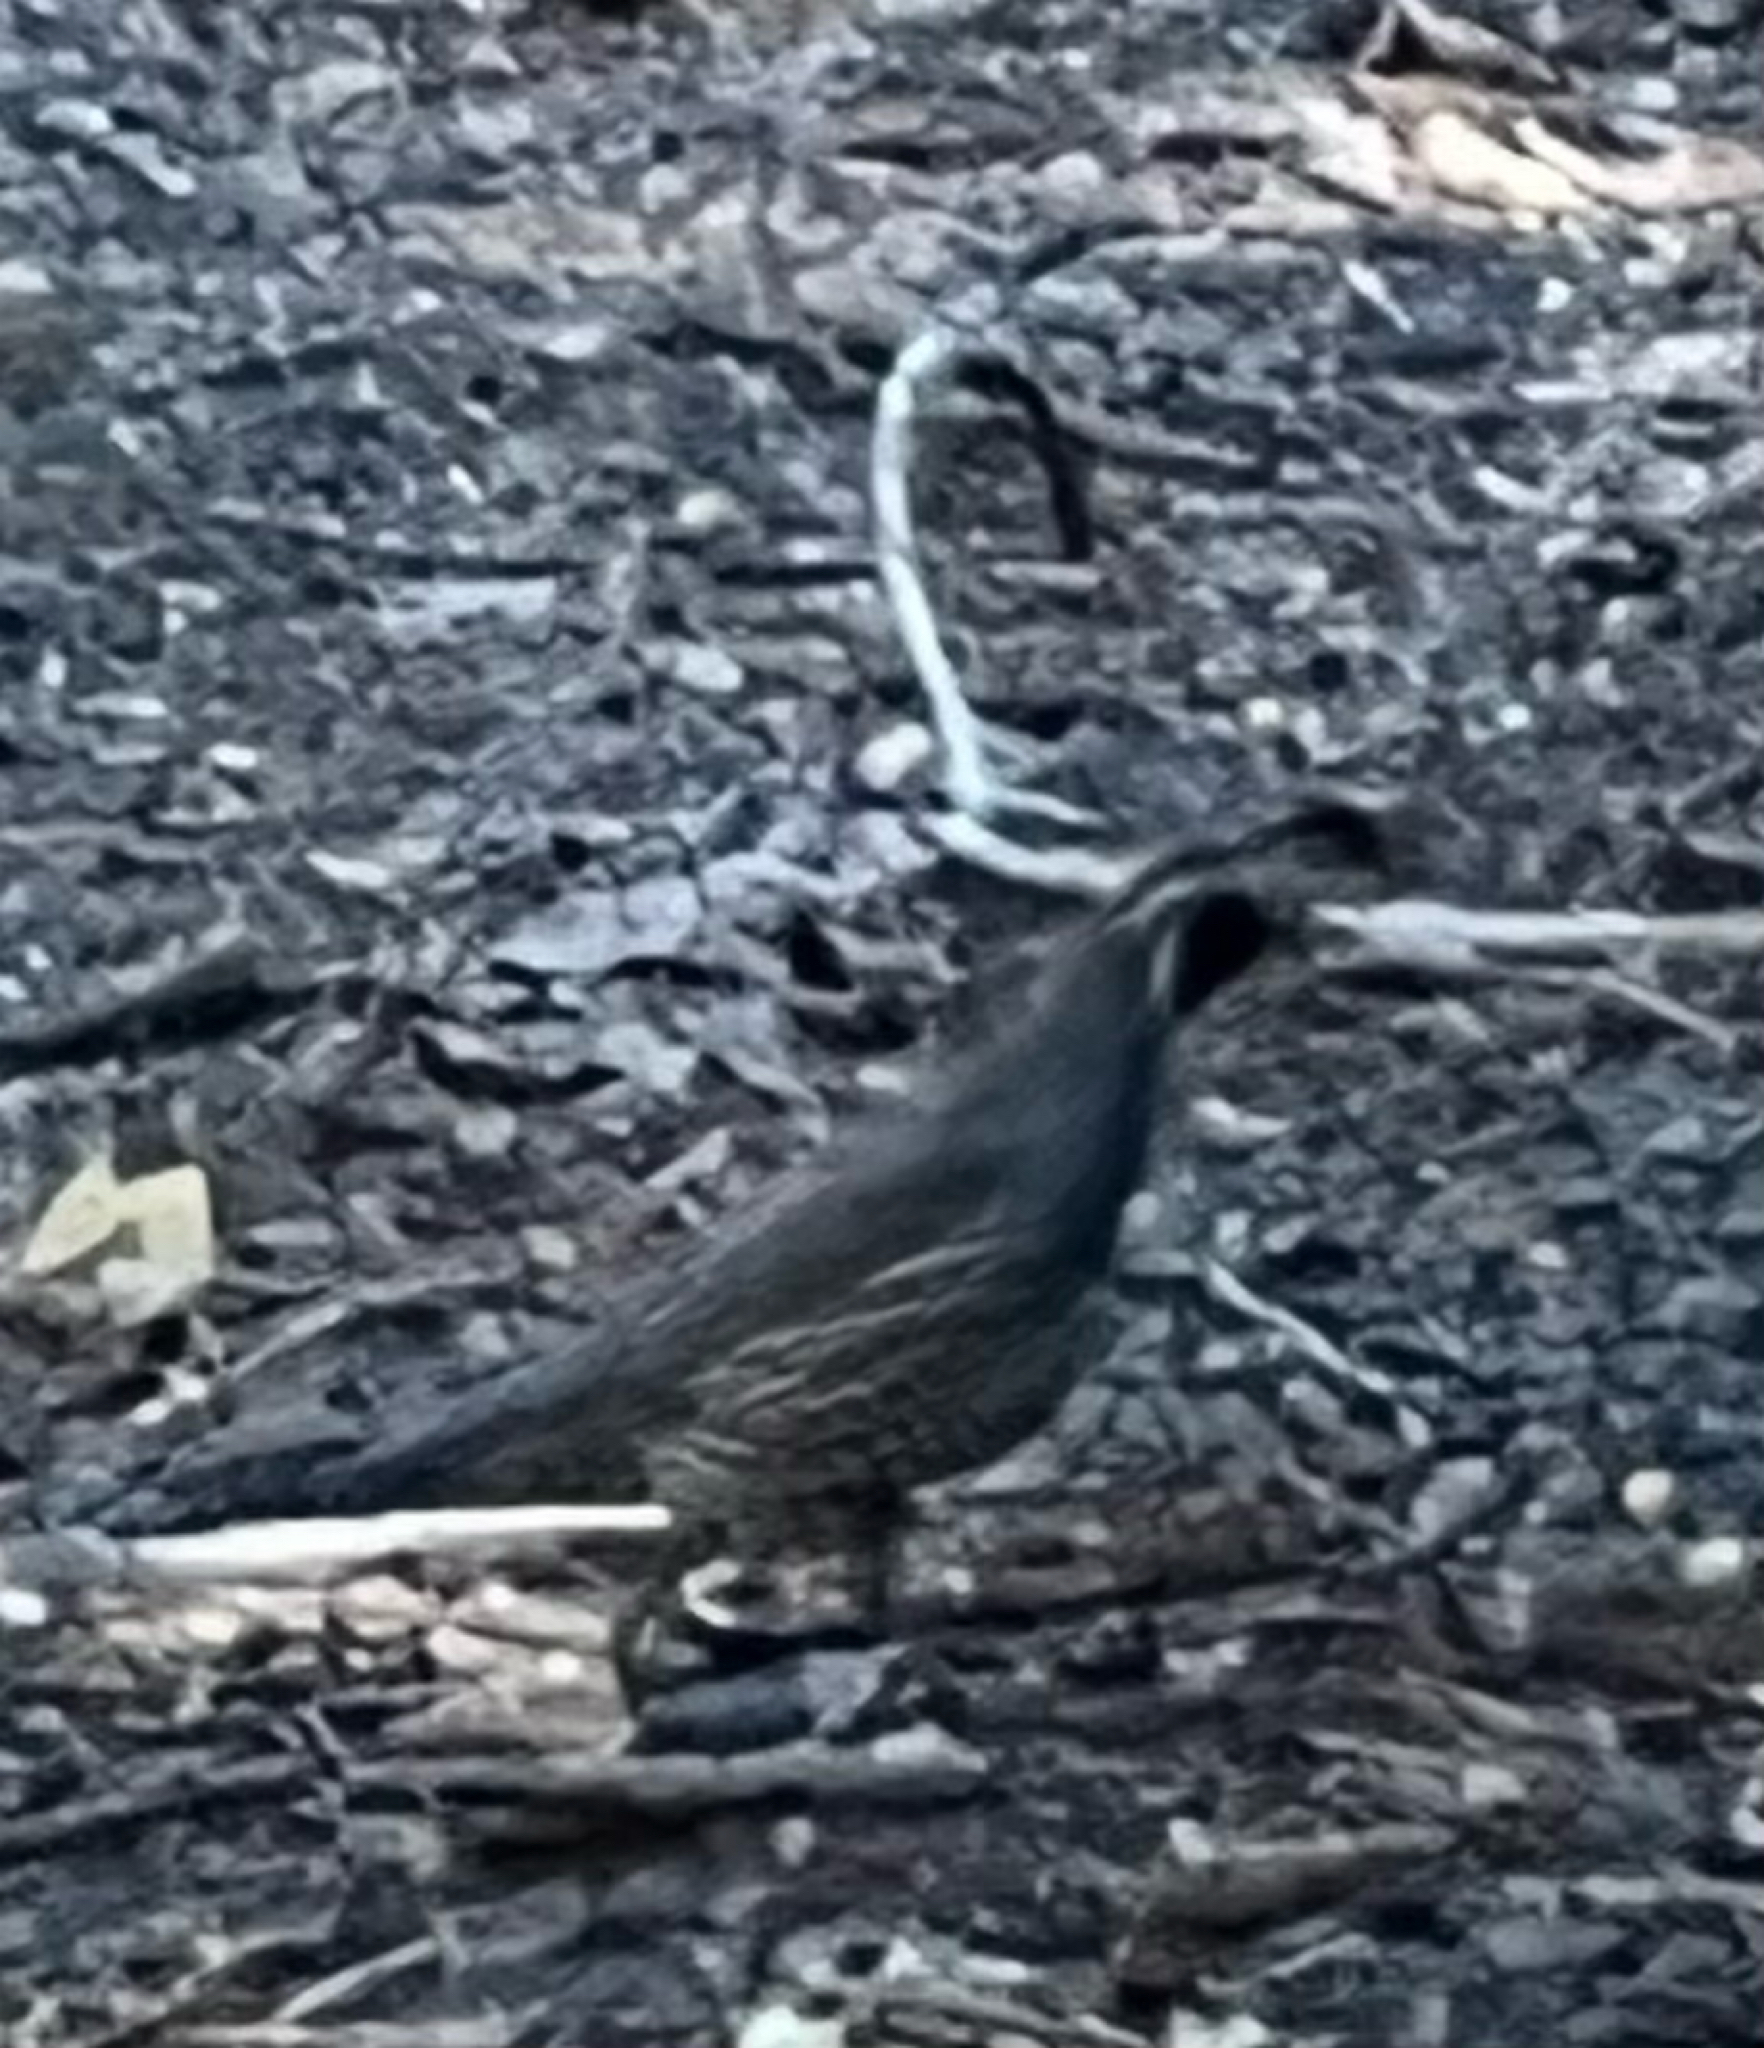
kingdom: Animalia
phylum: Chordata
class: Aves
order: Galliformes
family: Odontophoridae
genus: Callipepla
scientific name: Callipepla californica
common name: California quail
